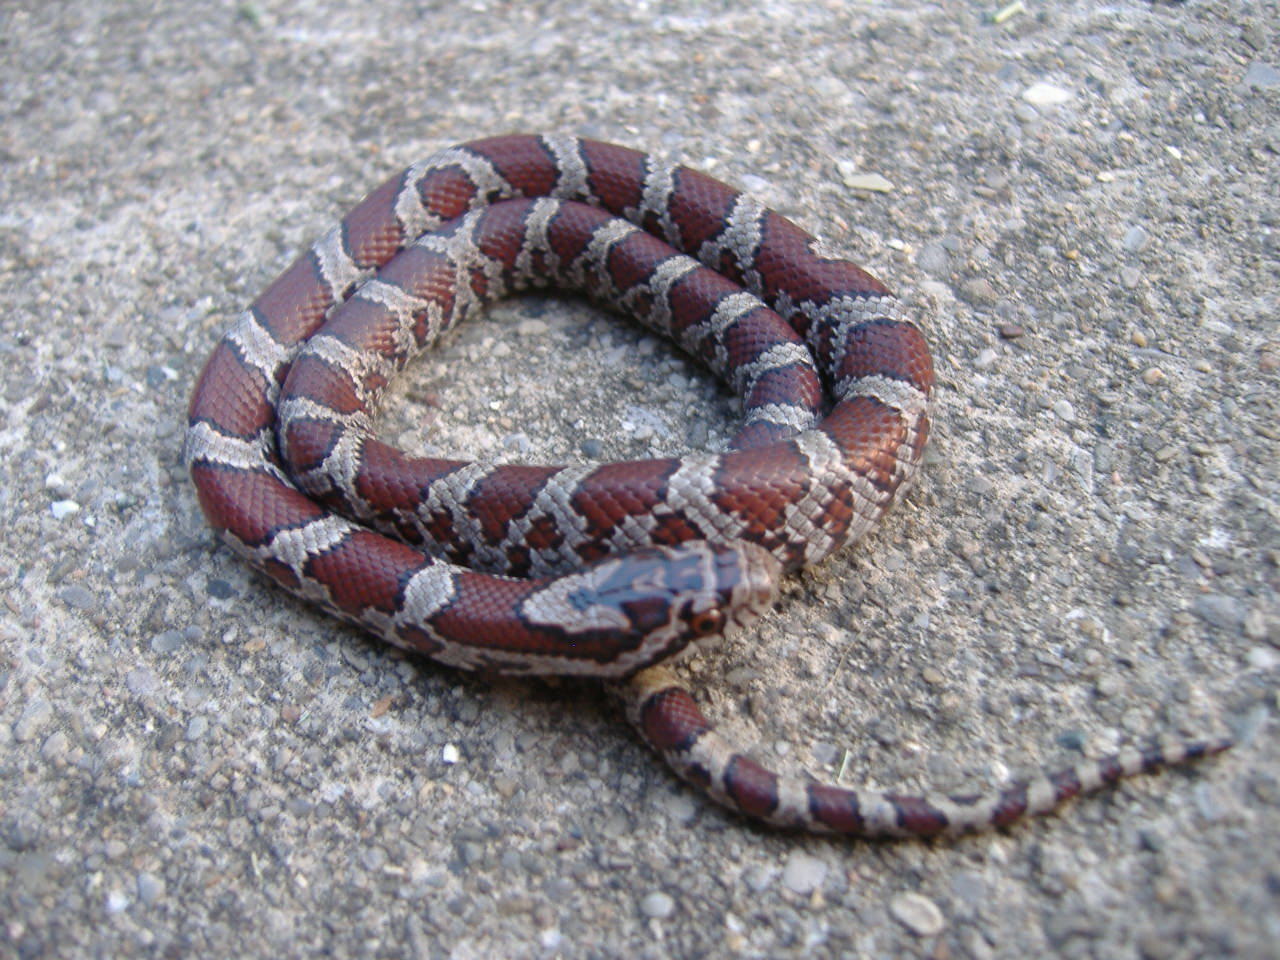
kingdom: Animalia
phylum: Chordata
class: Squamata
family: Colubridae
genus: Lampropeltis
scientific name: Lampropeltis triangulum
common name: Eastern milksnake
